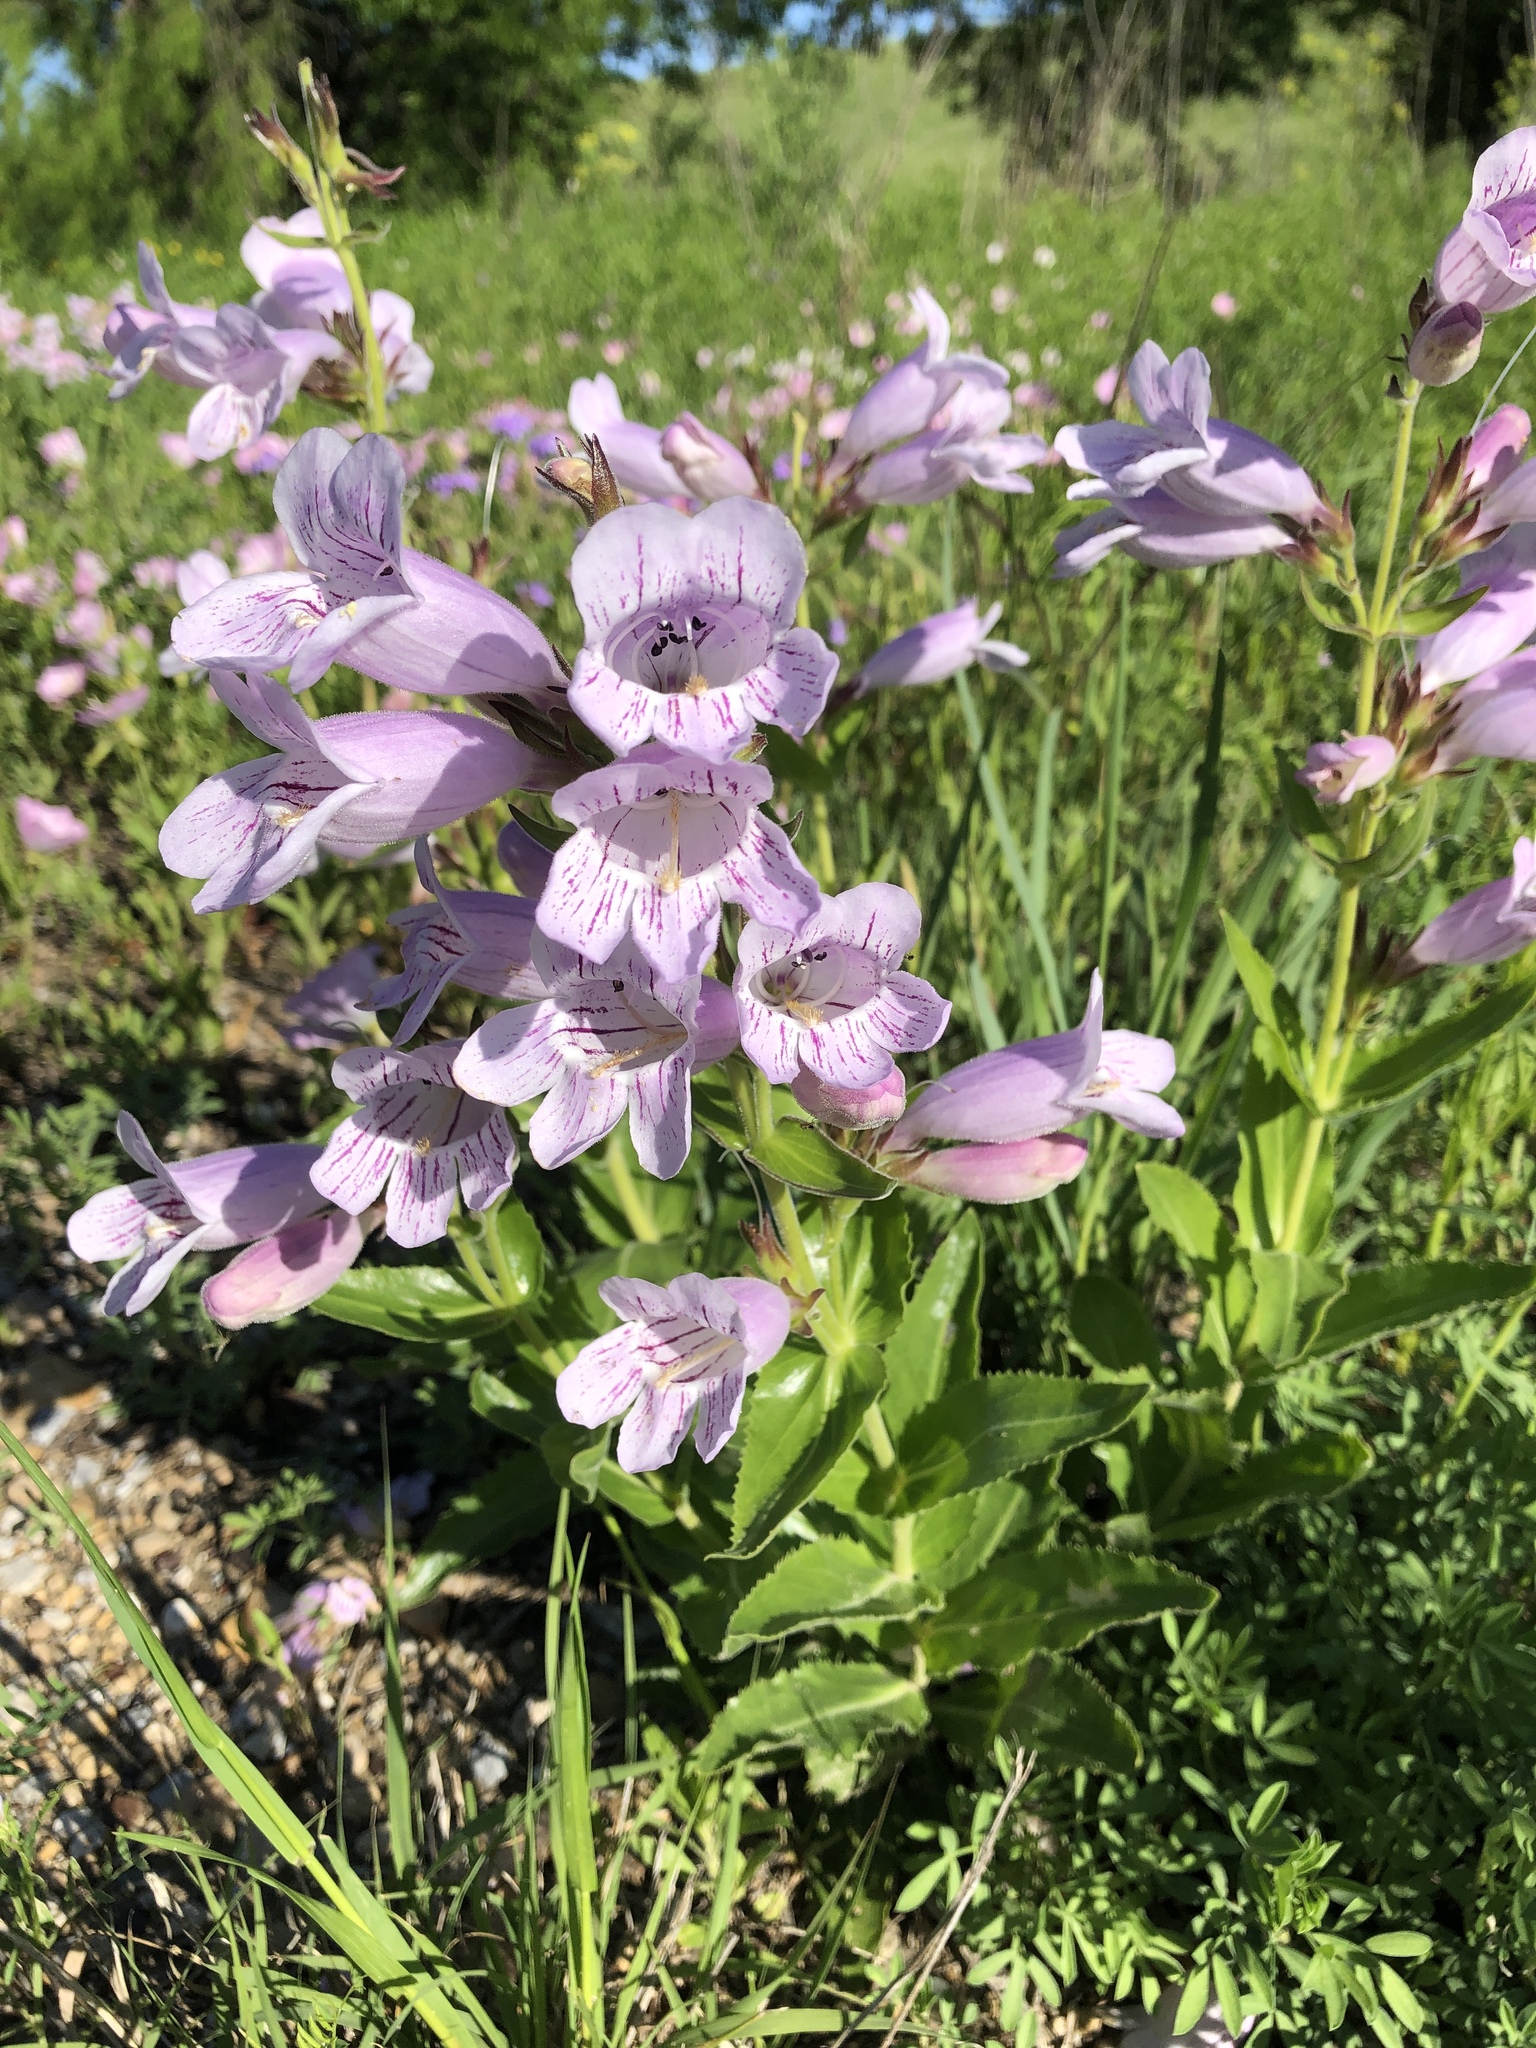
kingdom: Plantae
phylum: Tracheophyta
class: Magnoliopsida
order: Lamiales
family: Plantaginaceae
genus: Penstemon
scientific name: Penstemon cobaea
